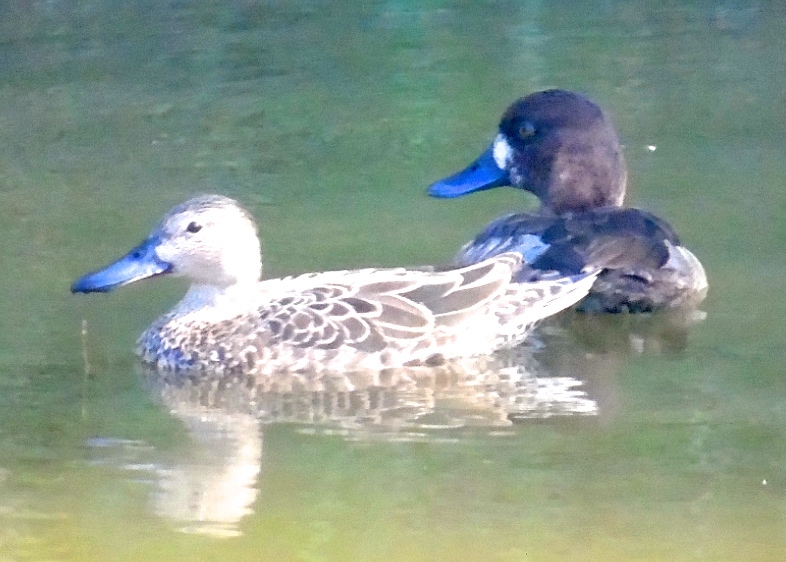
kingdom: Animalia
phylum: Chordata
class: Aves
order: Anseriformes
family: Anatidae
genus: Aythya
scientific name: Aythya marila
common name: Greater scaup
